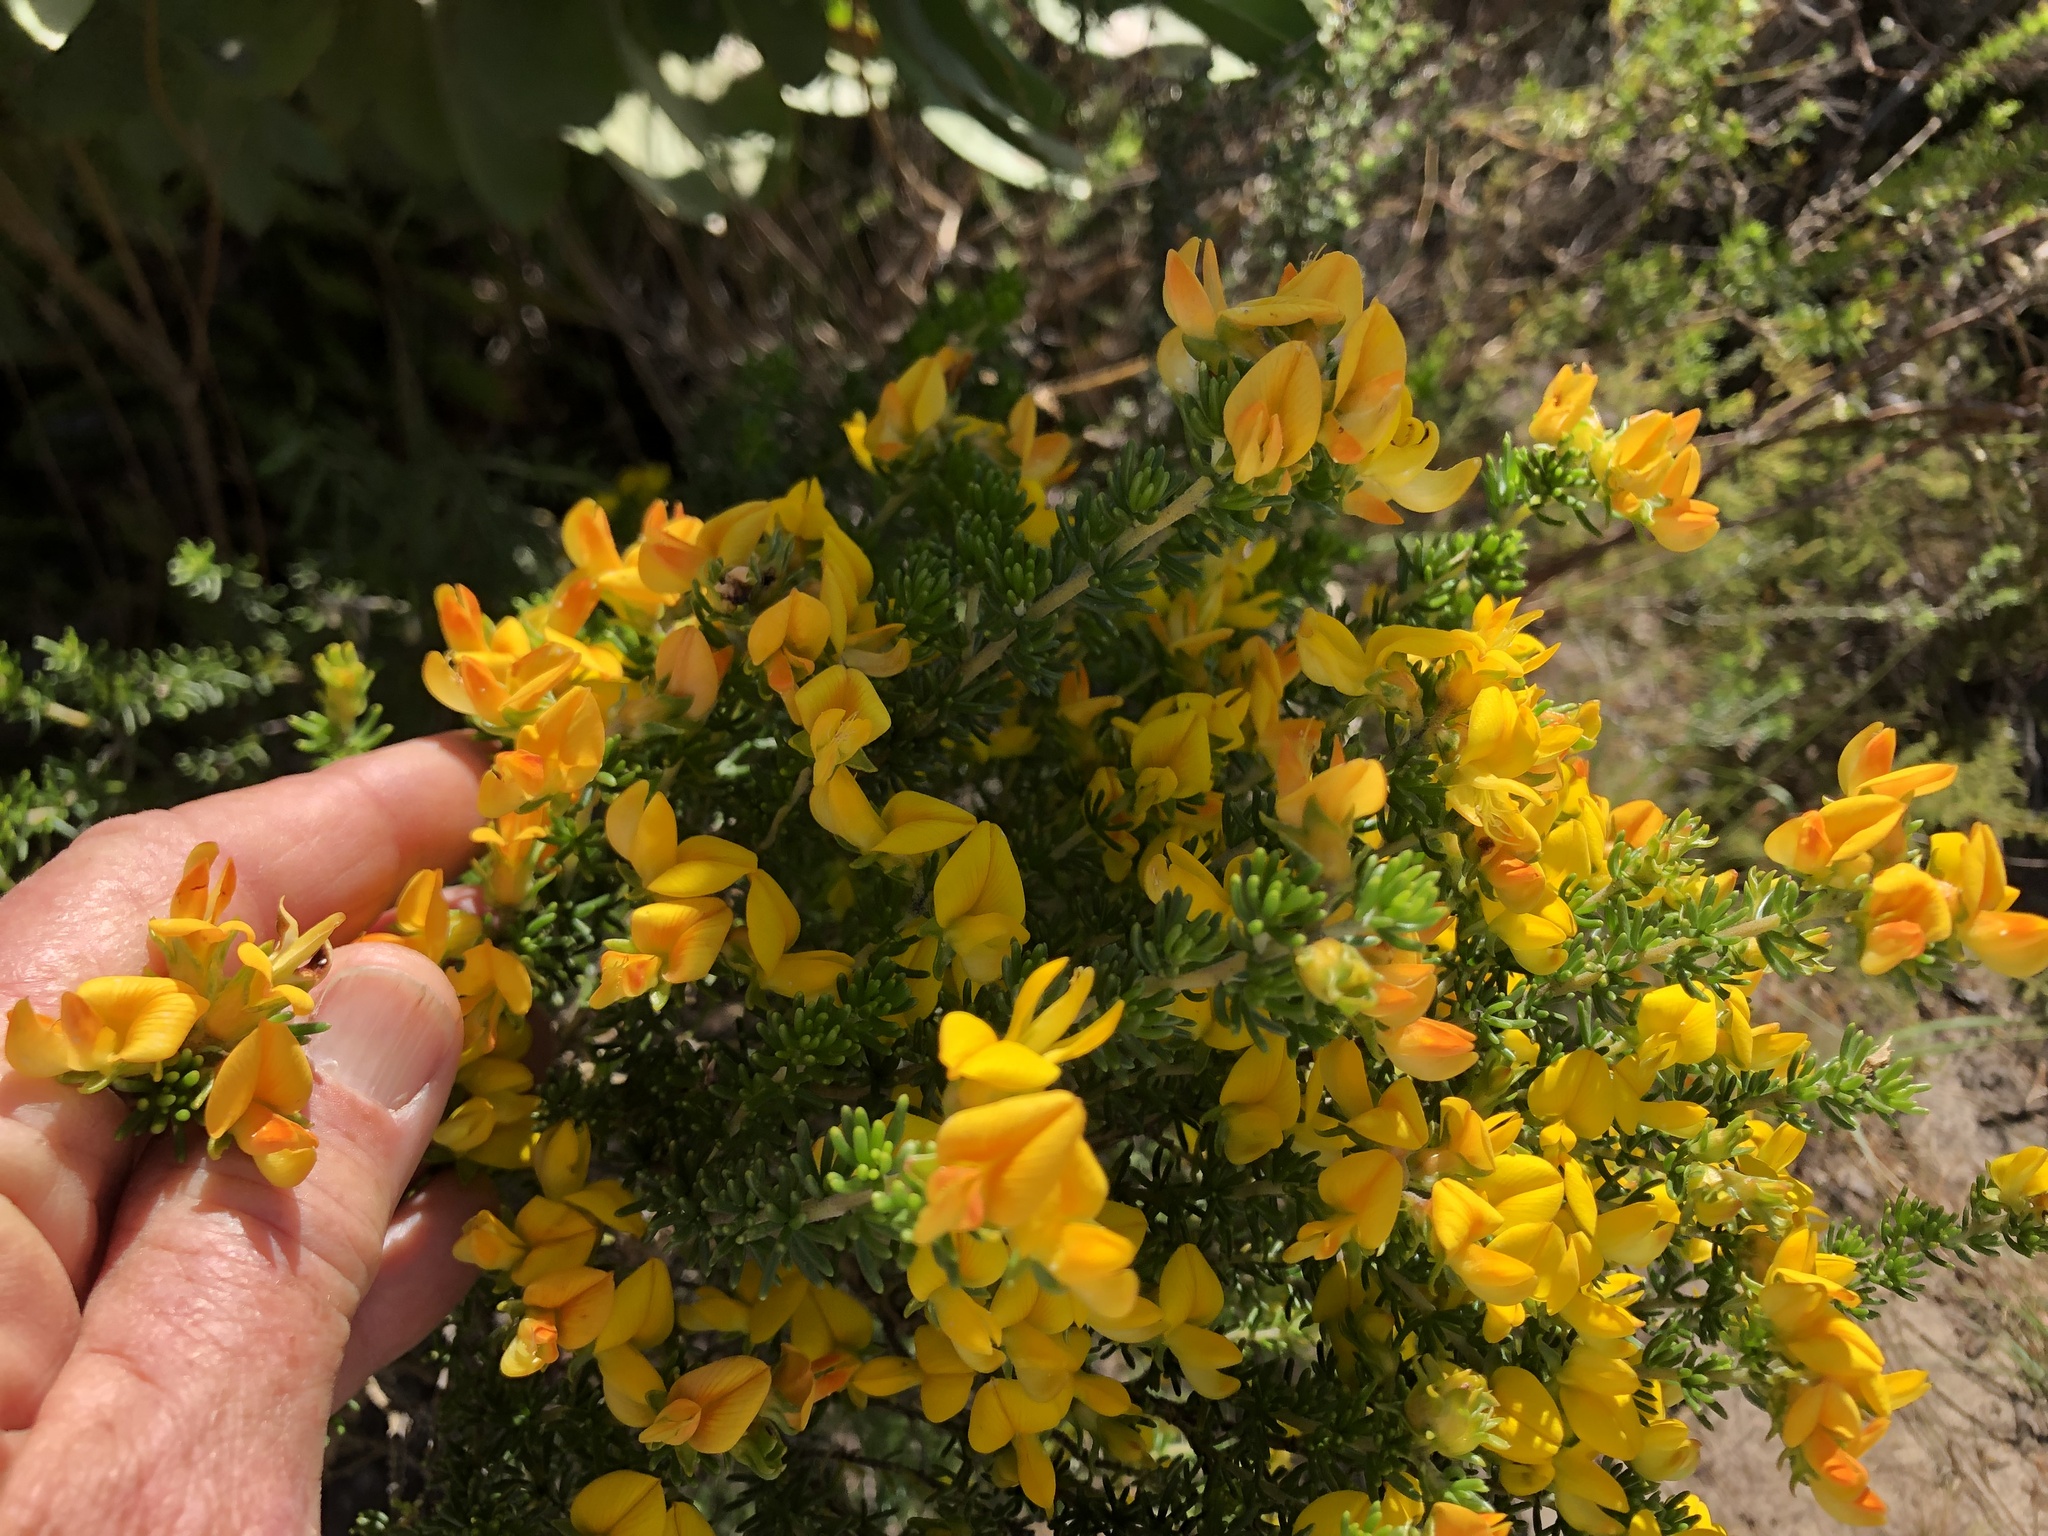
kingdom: Plantae
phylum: Tracheophyta
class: Magnoliopsida
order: Fabales
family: Fabaceae
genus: Aspalathus
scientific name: Aspalathus carnosa
